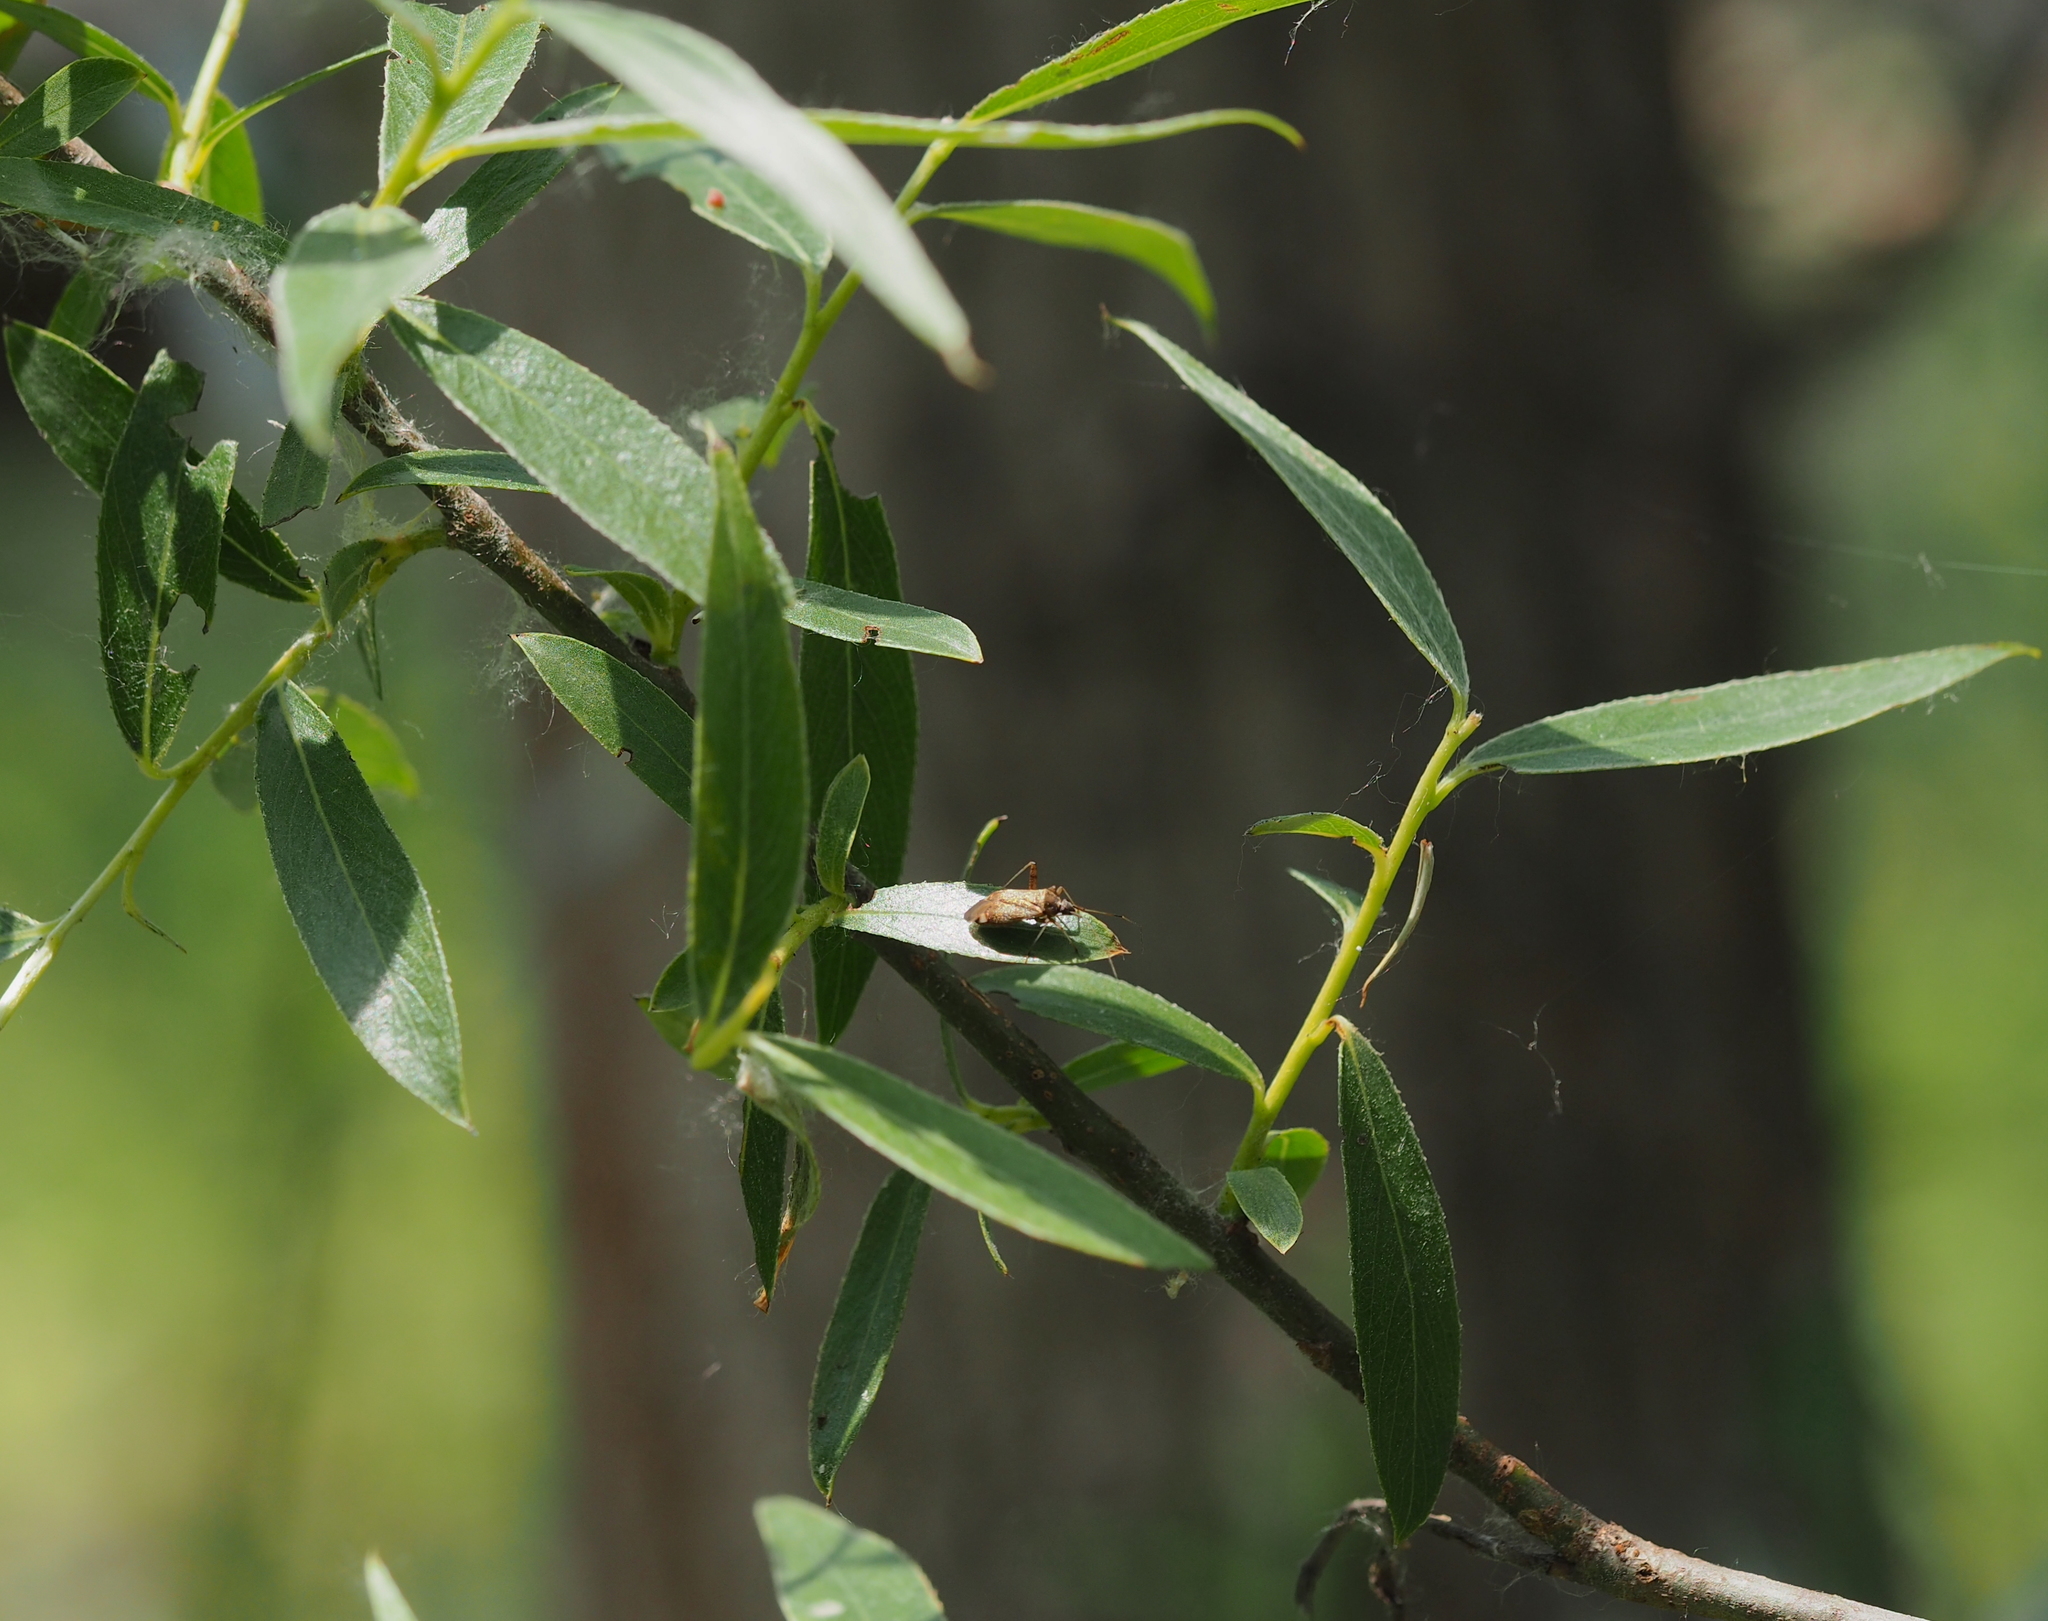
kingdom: Animalia
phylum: Arthropoda
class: Insecta
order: Hemiptera
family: Miridae
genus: Closterotomus
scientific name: Closterotomus fulvomaculatus
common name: Spotted plant bug
